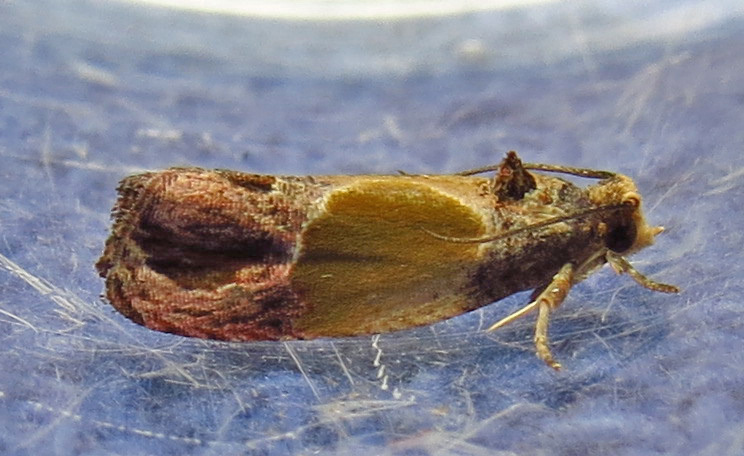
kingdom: Animalia
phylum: Arthropoda
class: Insecta
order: Lepidoptera
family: Tortricidae
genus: Eumarozia
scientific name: Eumarozia malachitana
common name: Sculptured moth
